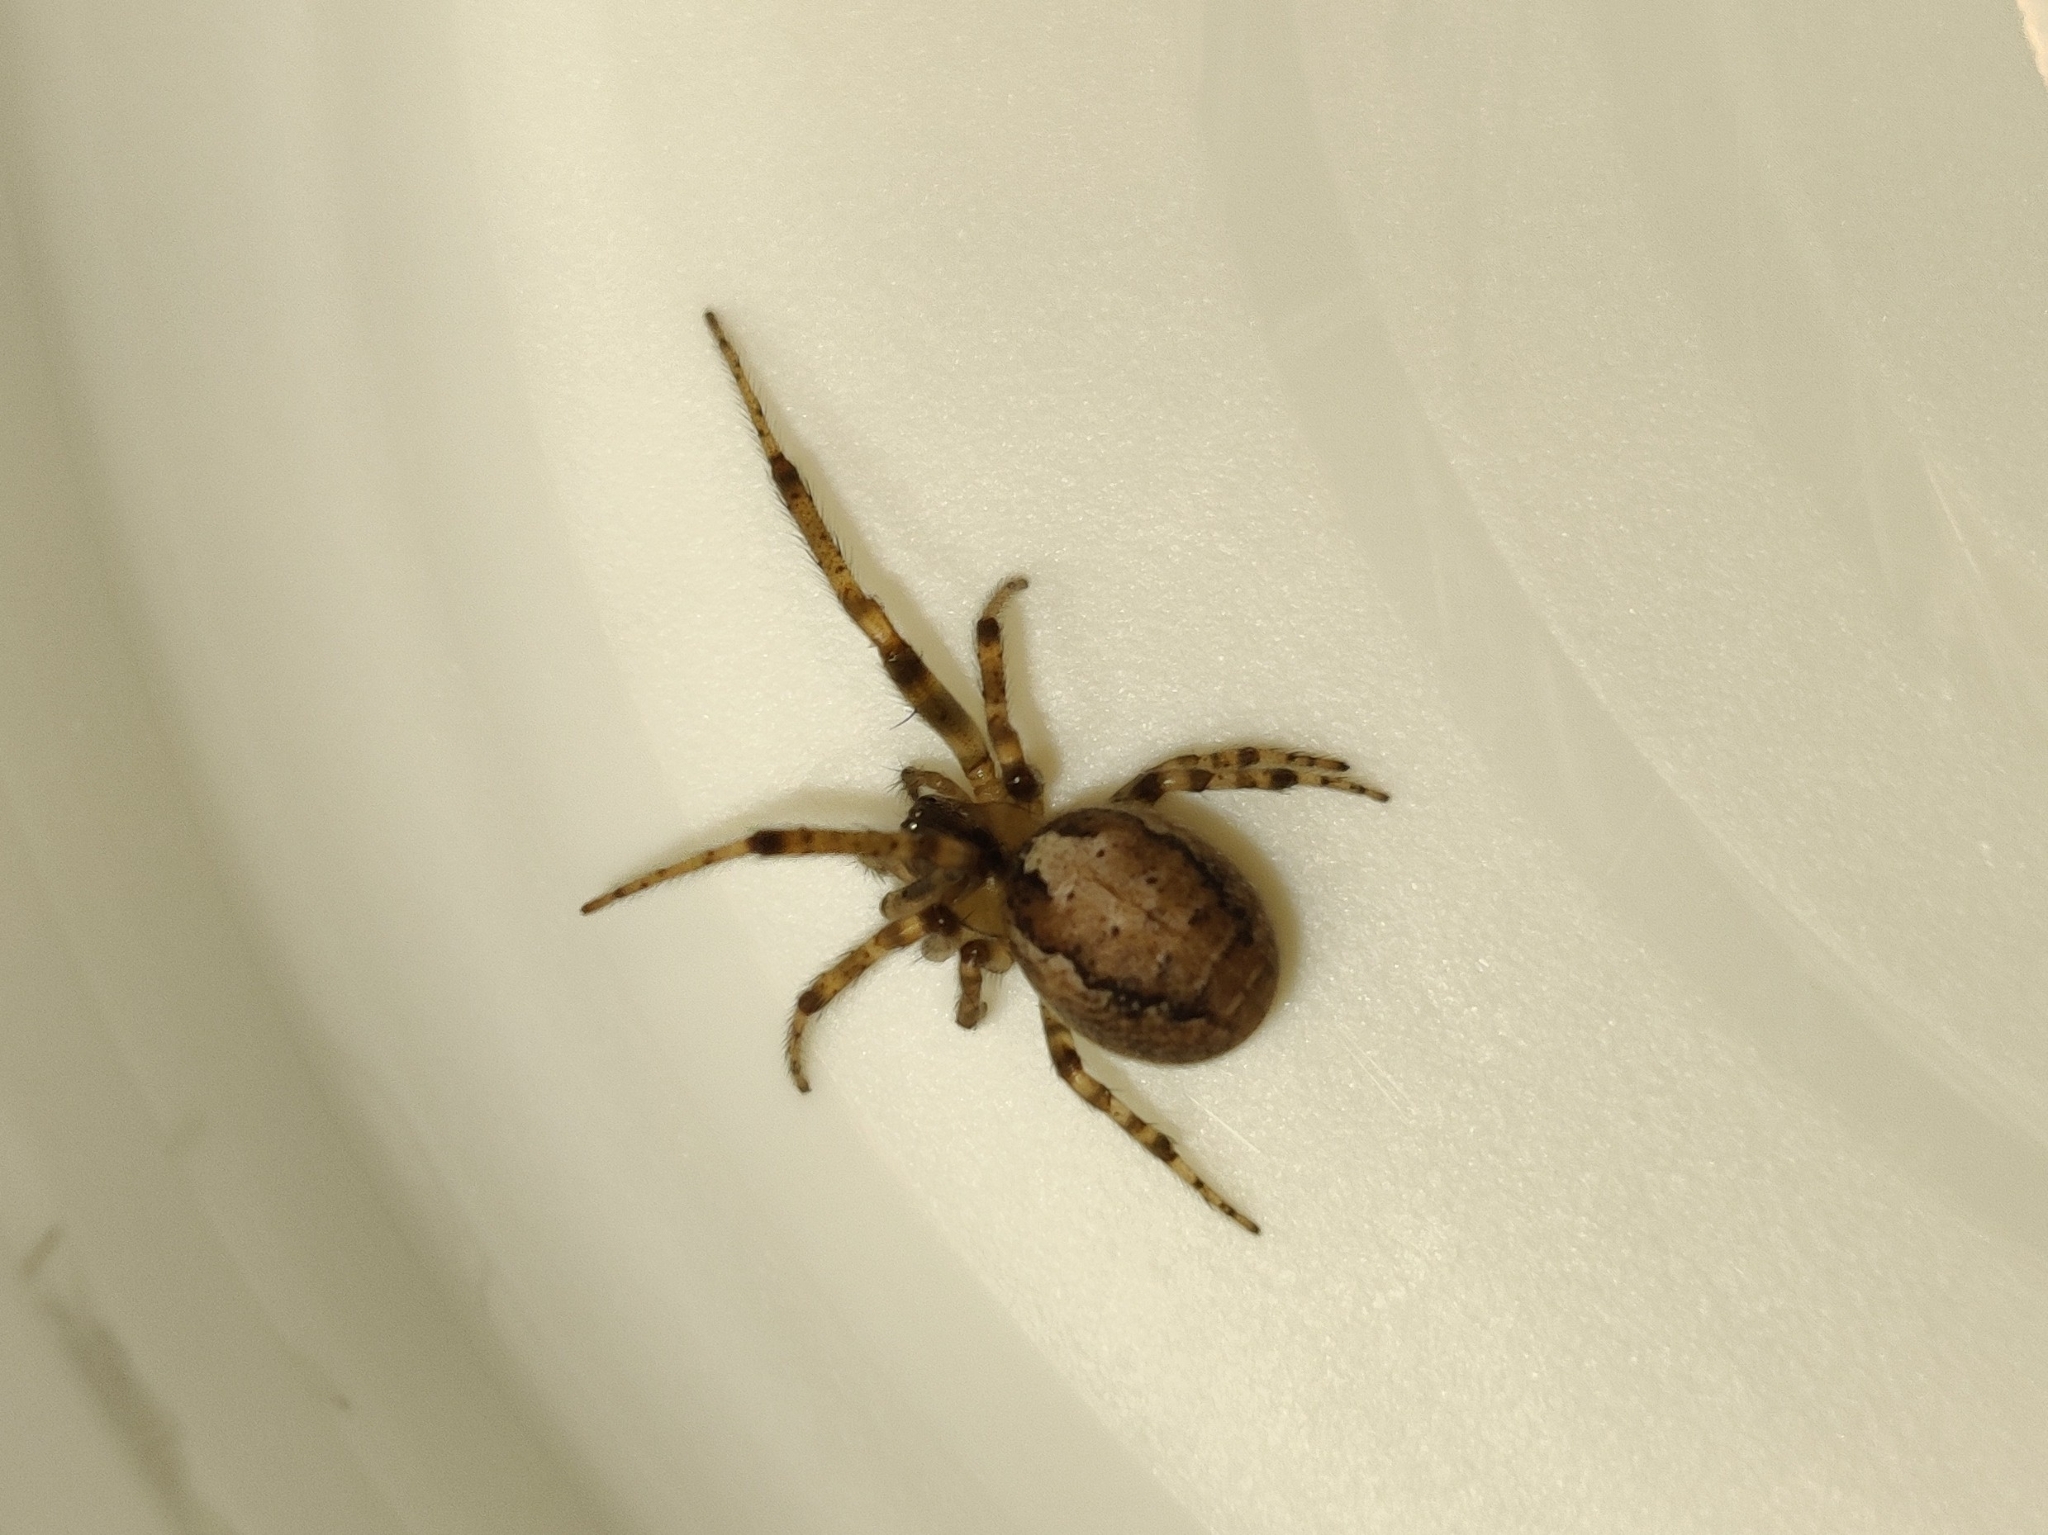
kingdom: Animalia
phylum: Arthropoda
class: Arachnida
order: Araneae
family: Araneidae
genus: Zygiella
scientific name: Zygiella x-notata
